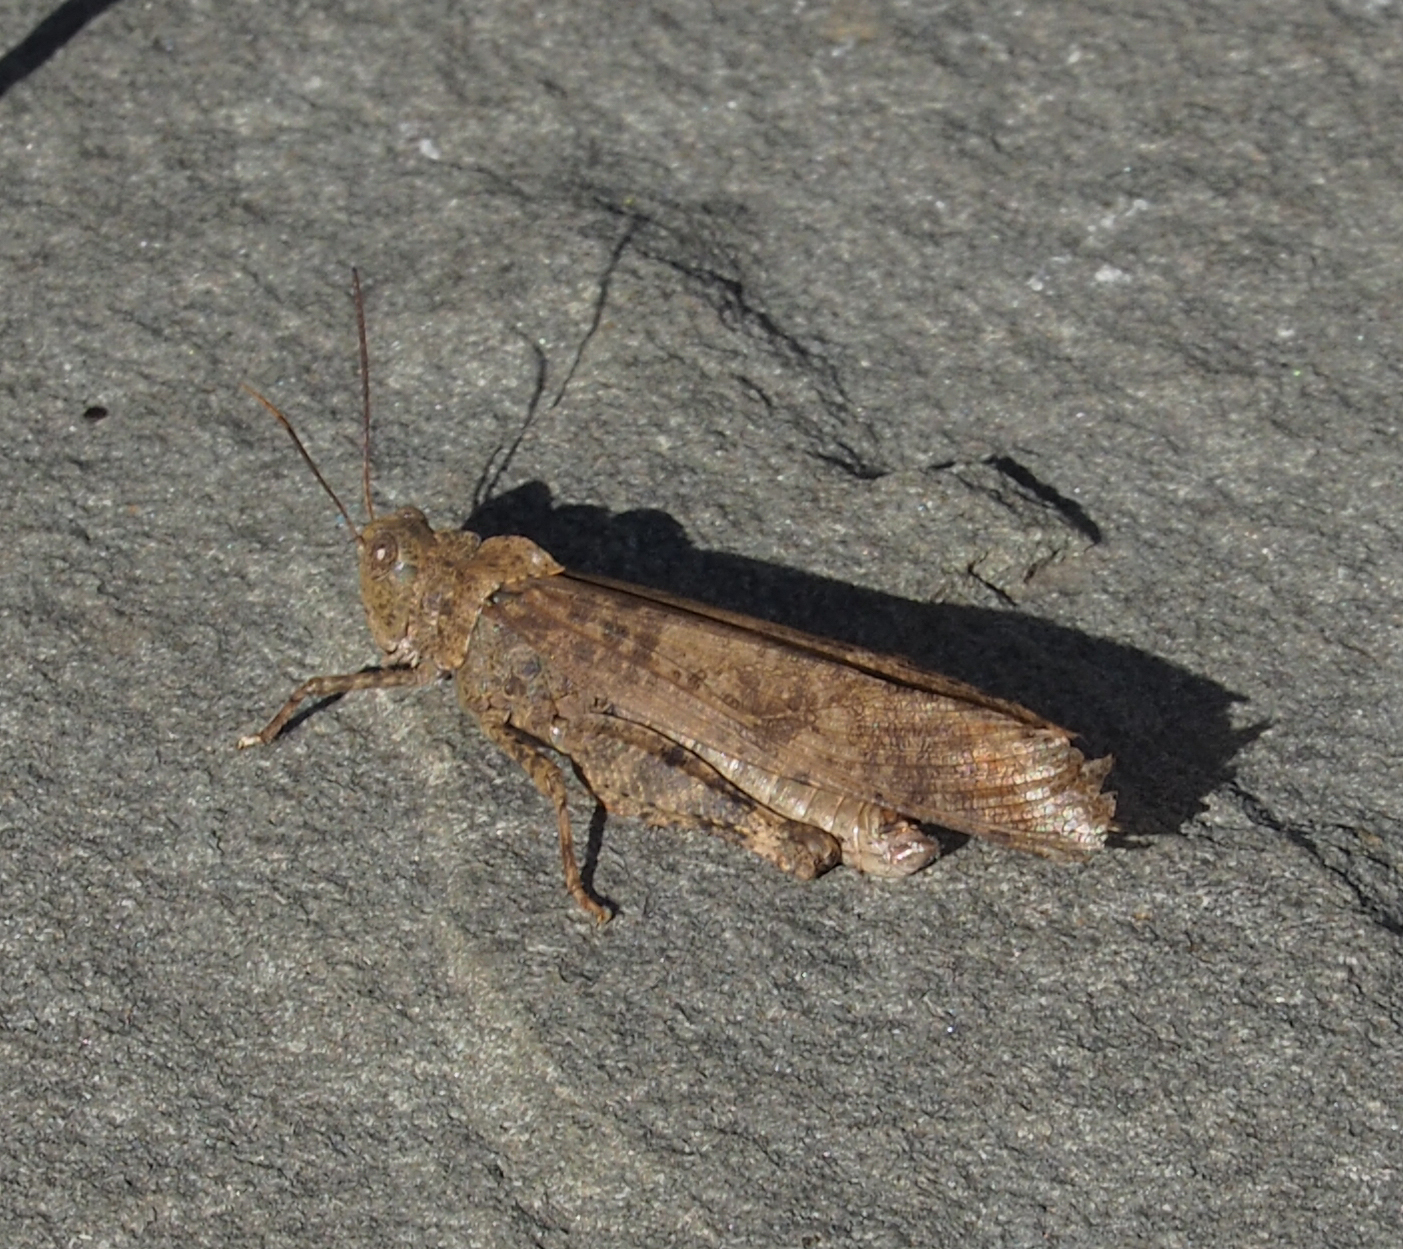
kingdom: Animalia
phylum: Arthropoda
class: Insecta
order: Orthoptera
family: Acrididae
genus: Dissosteira
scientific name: Dissosteira carolina
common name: Carolina grasshopper
